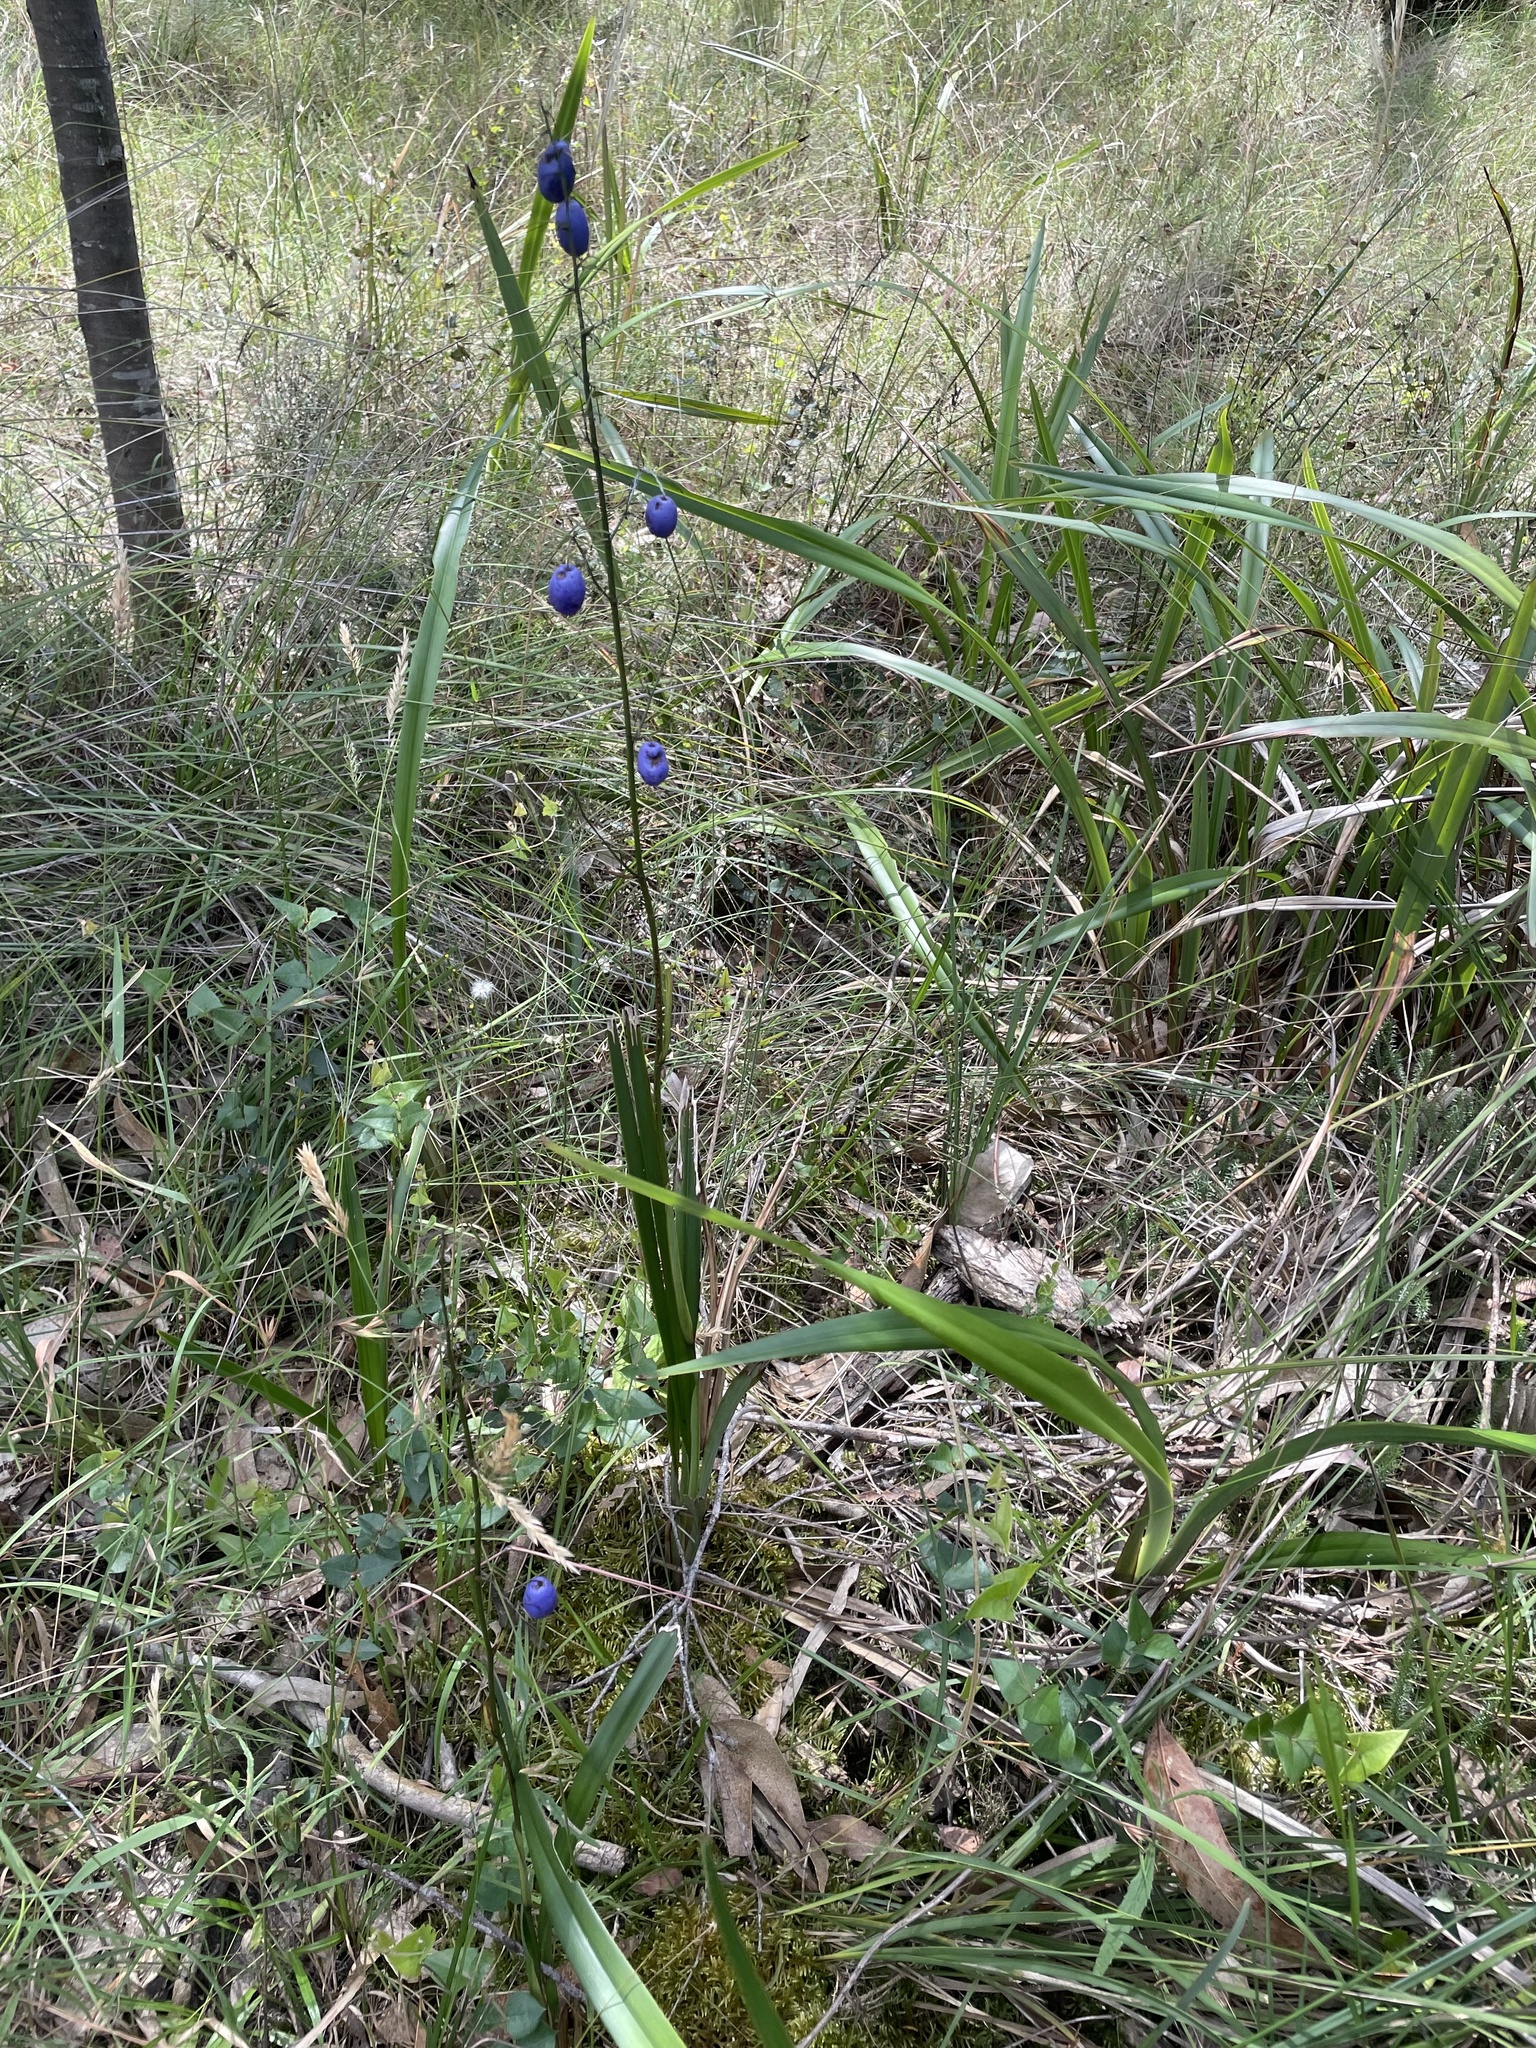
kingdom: Plantae
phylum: Tracheophyta
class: Liliopsida
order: Asparagales
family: Asphodelaceae
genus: Dianella
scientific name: Dianella tasmanica
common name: Tasman flax-lily
